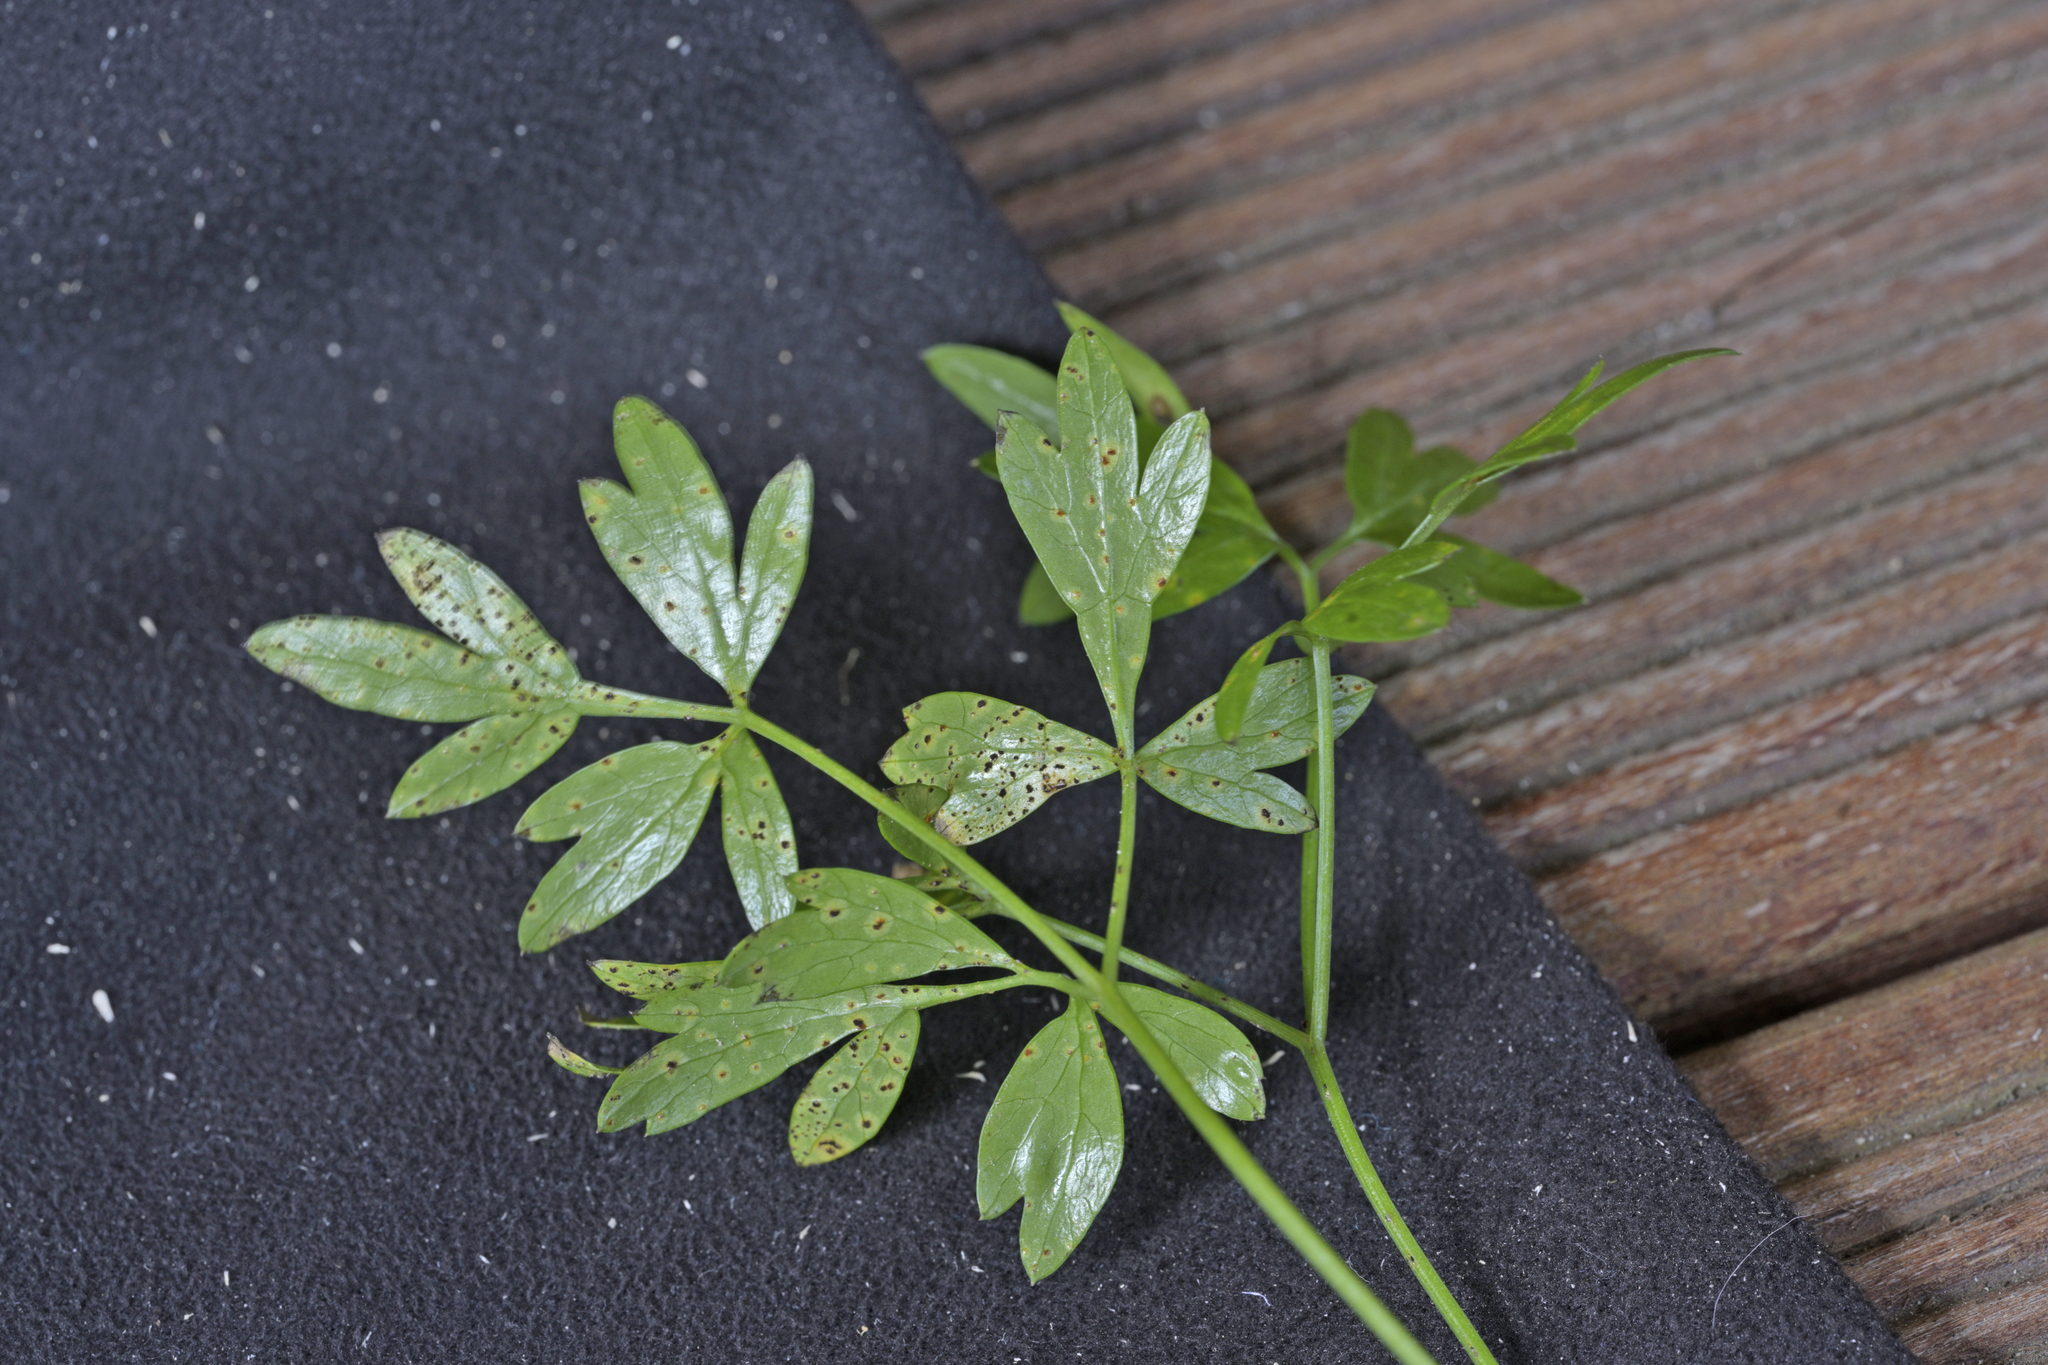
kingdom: Plantae
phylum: Tracheophyta
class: Magnoliopsida
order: Apiales
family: Apiaceae
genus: Anisotome
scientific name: Anisotome filifolia
